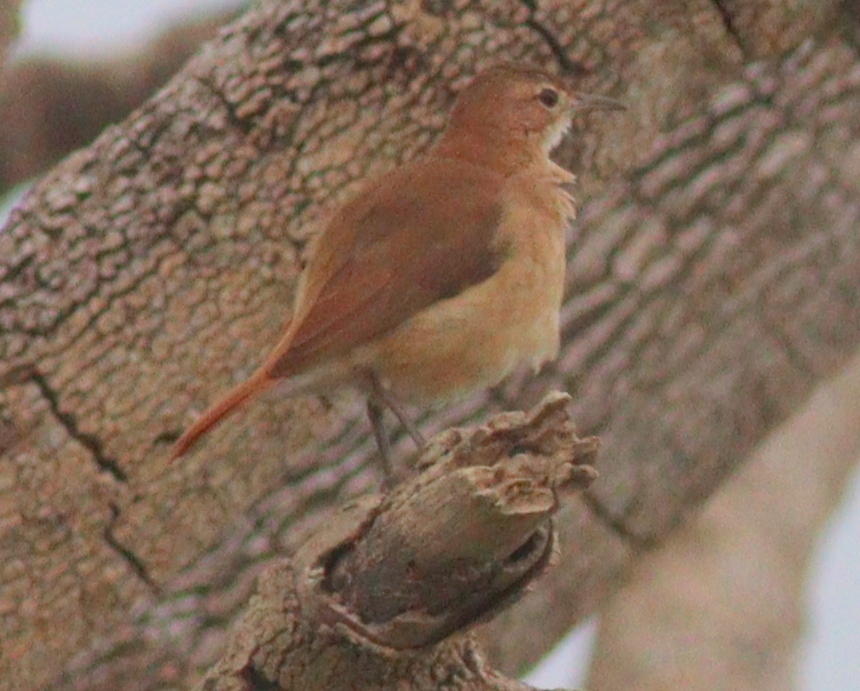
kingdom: Animalia
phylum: Chordata
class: Aves
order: Passeriformes
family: Furnariidae
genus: Furnarius
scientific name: Furnarius rufus
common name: Rufous hornero
